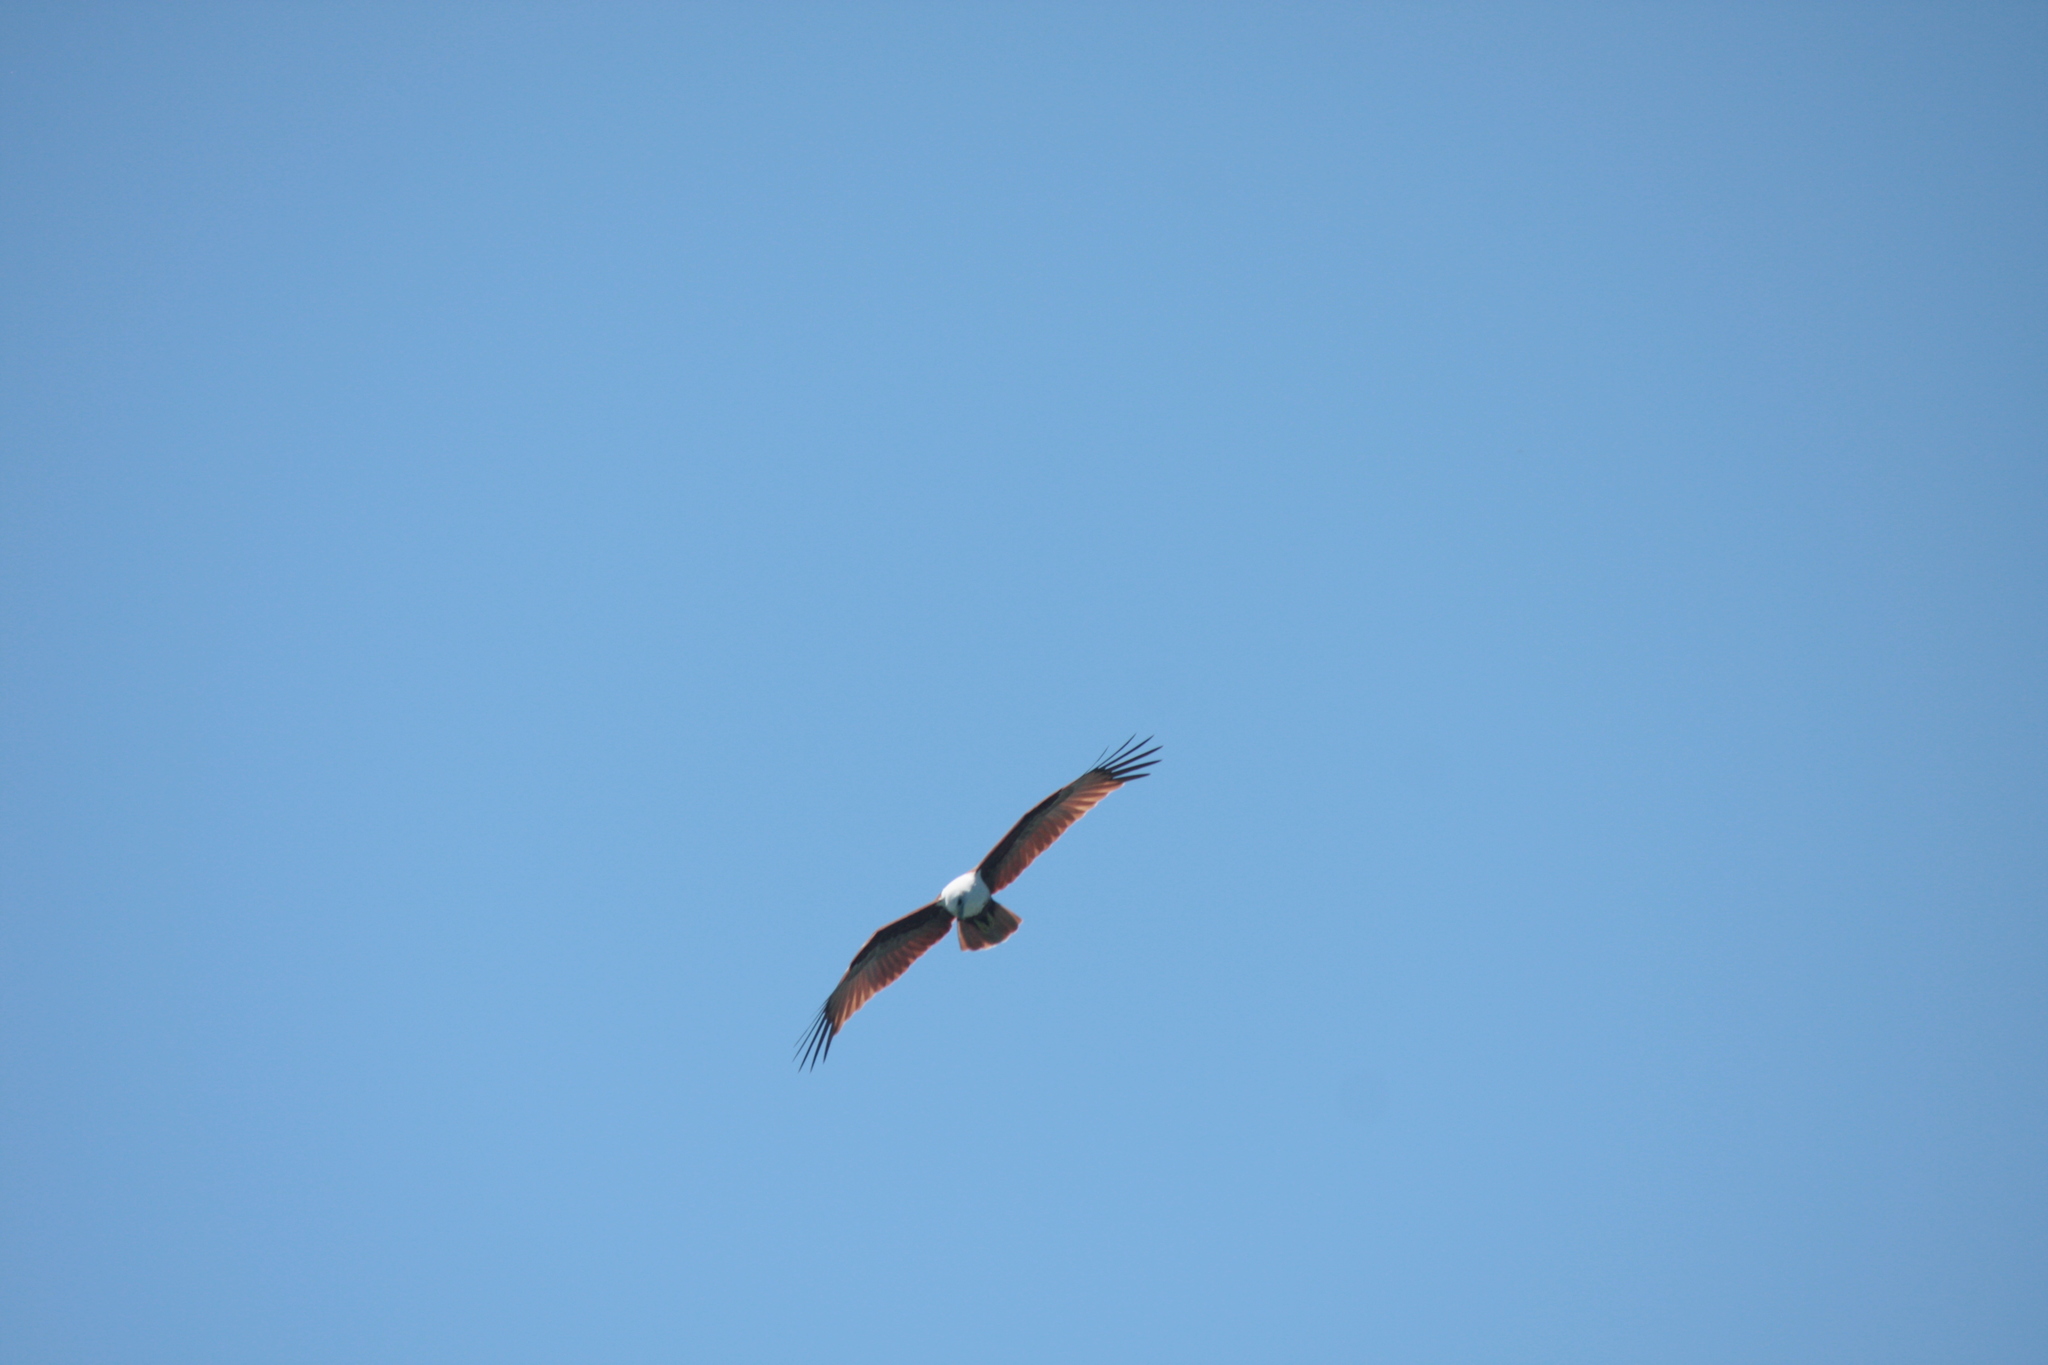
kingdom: Animalia
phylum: Chordata
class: Aves
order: Accipitriformes
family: Accipitridae
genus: Haliastur
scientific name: Haliastur indus
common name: Brahminy kite
